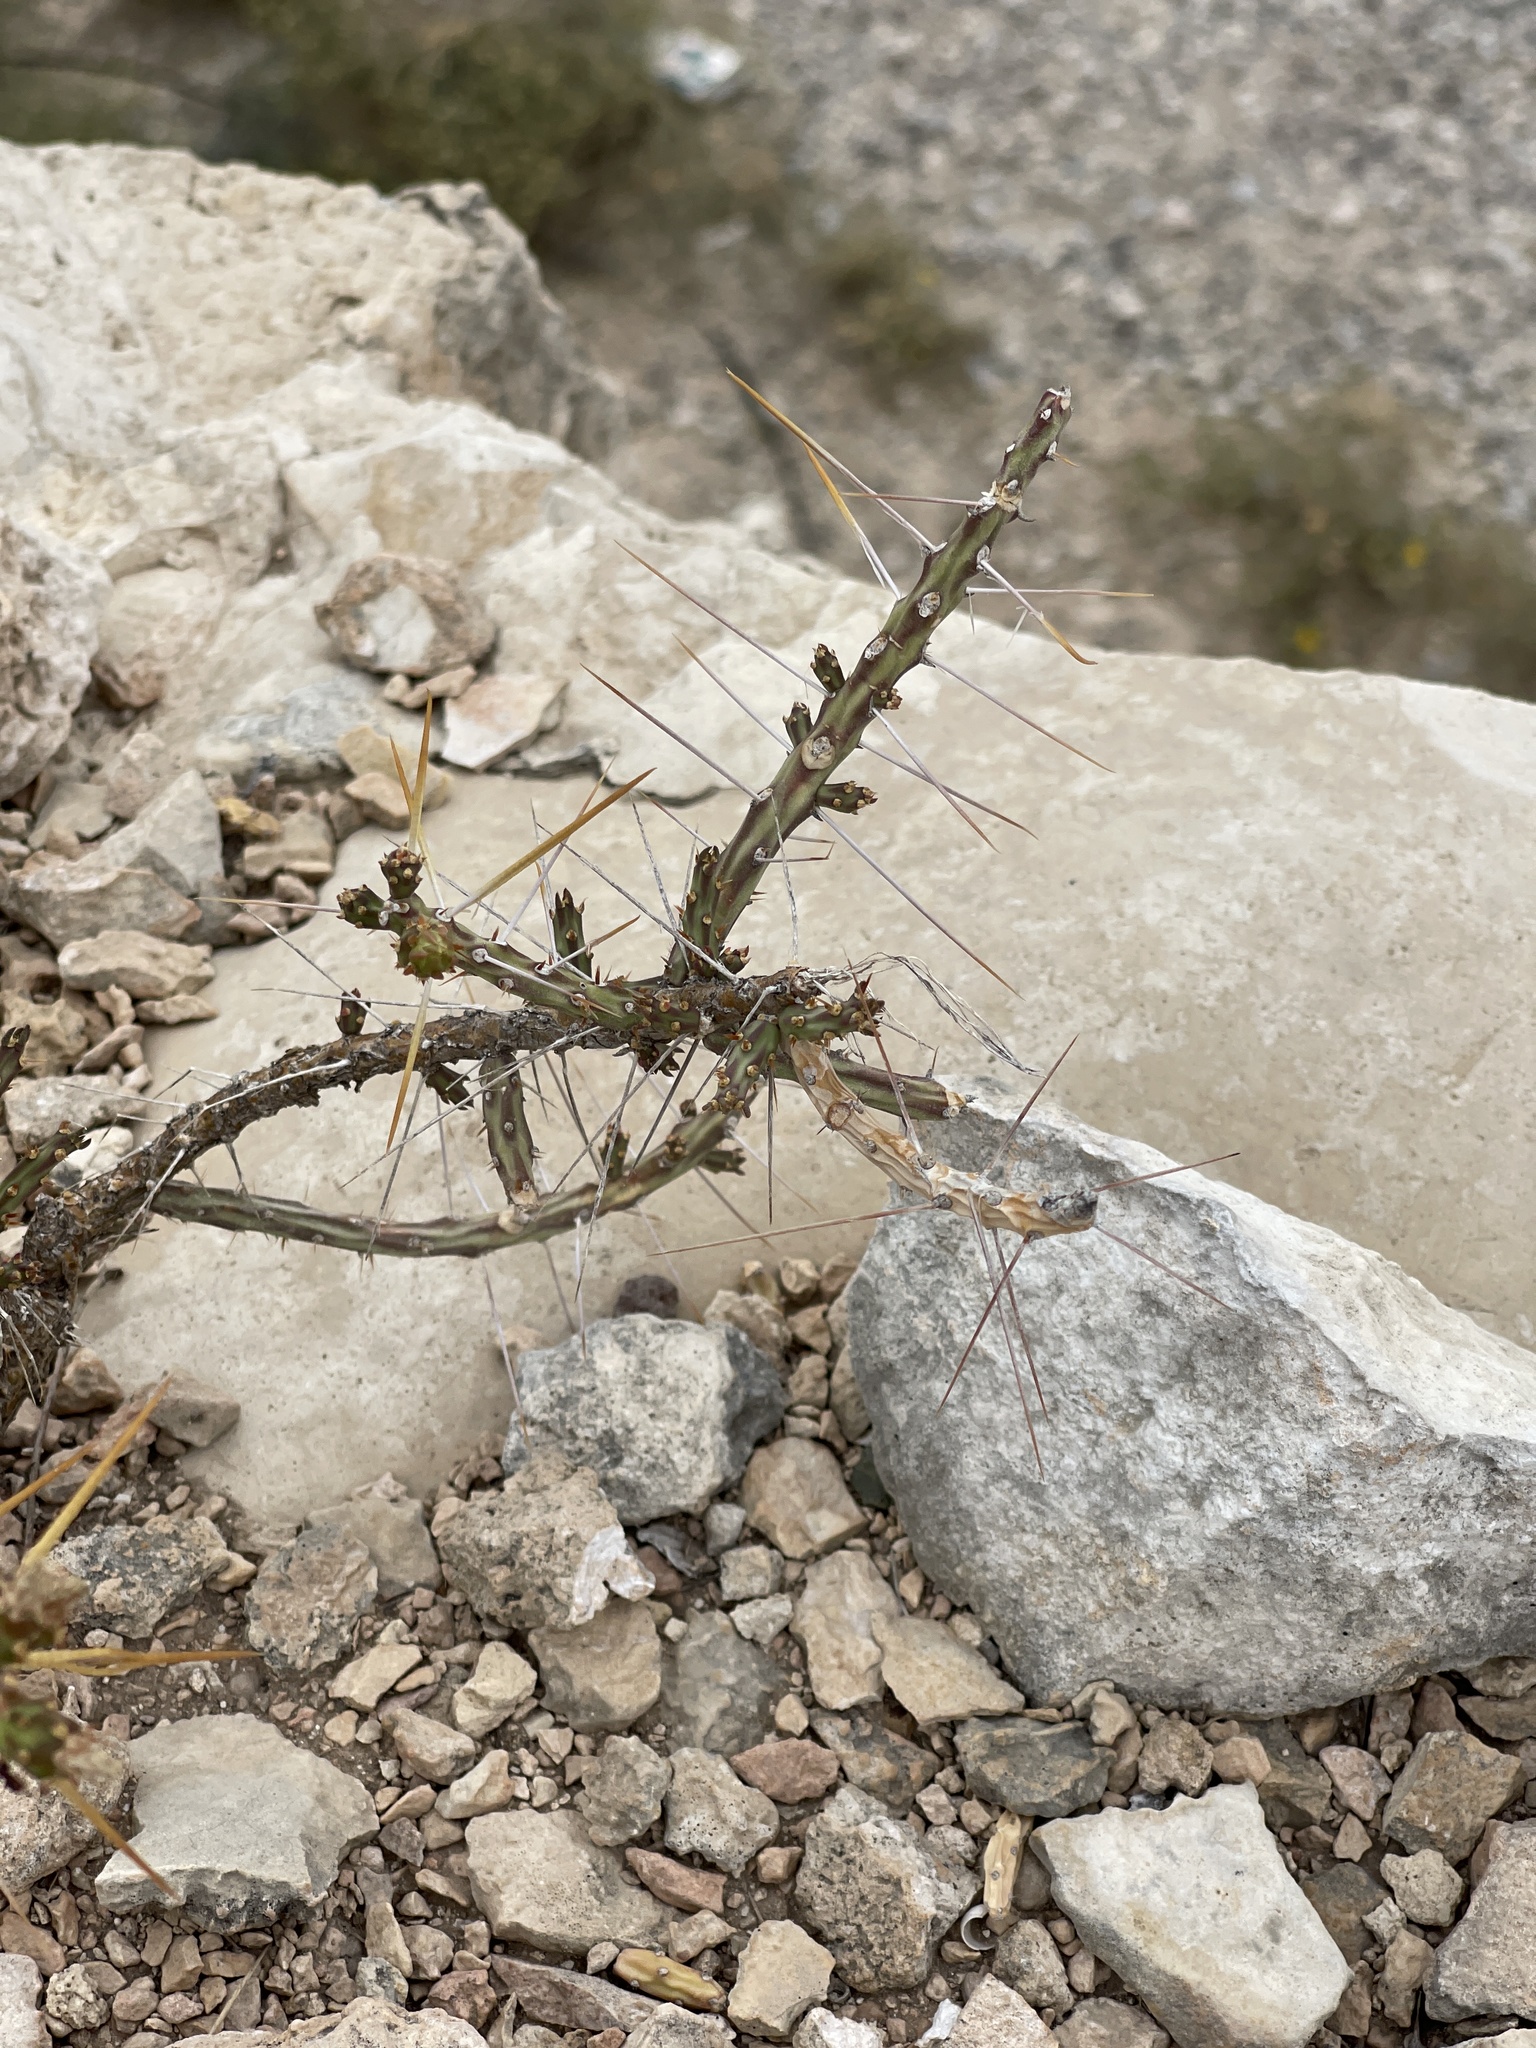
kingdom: Plantae
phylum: Tracheophyta
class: Magnoliopsida
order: Caryophyllales
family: Cactaceae
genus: Cylindropuntia
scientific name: Cylindropuntia leptocaulis
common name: Christmas cactus
